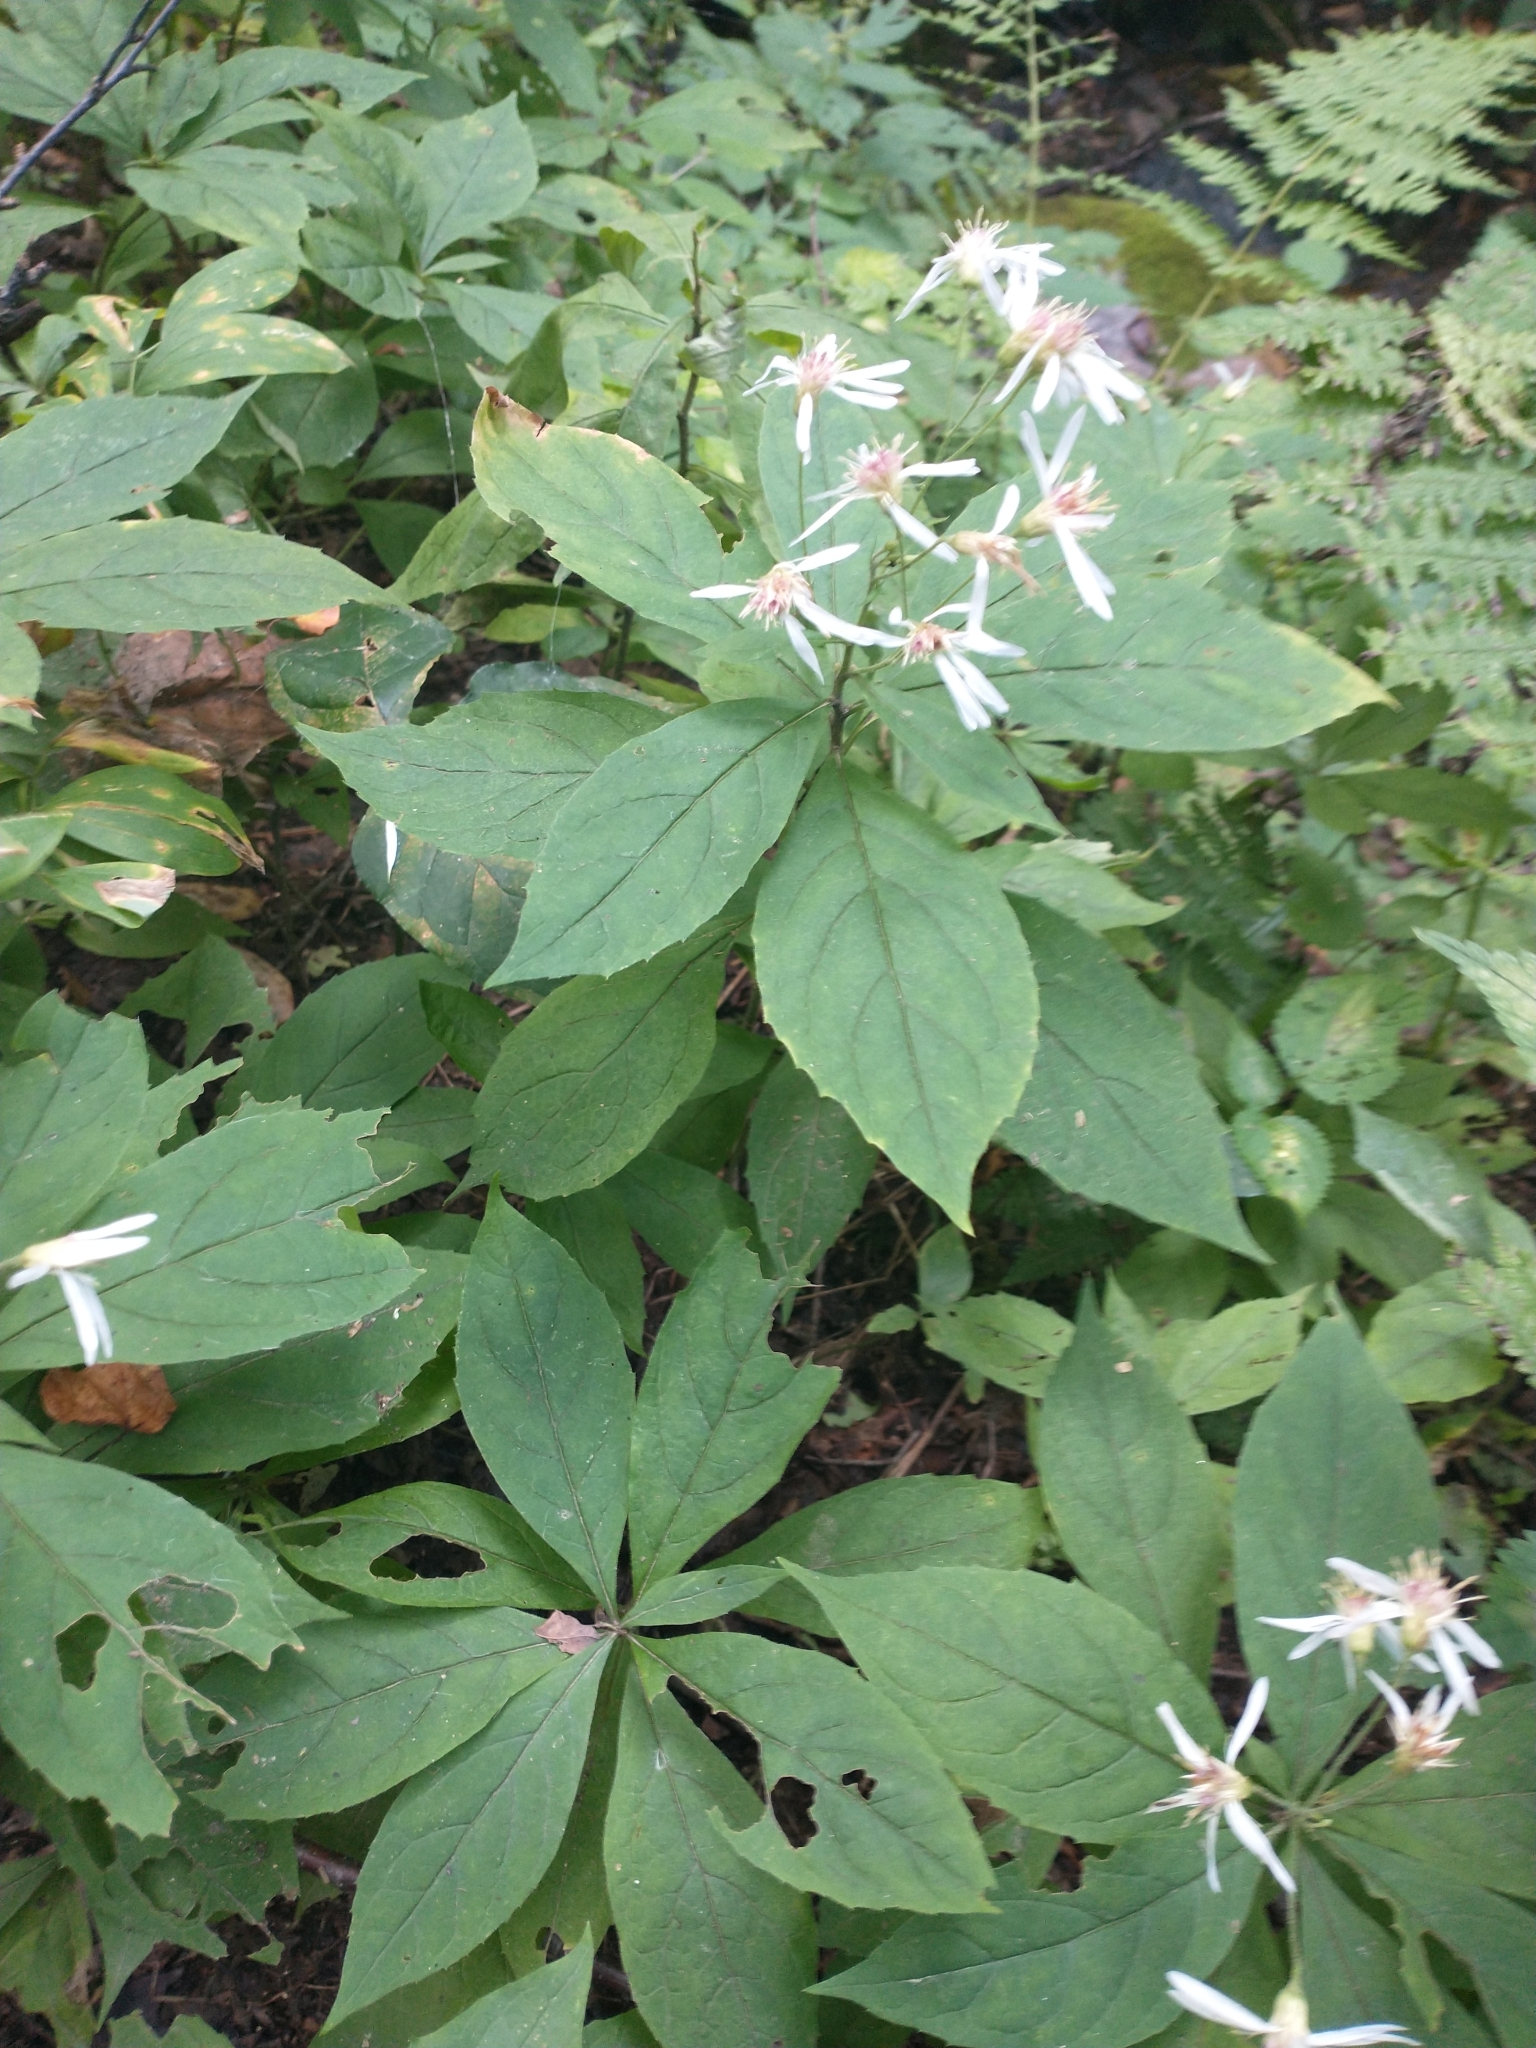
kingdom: Plantae
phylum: Tracheophyta
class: Magnoliopsida
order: Asterales
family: Asteraceae
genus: Oclemena
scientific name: Oclemena acuminata
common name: Mountain aster
